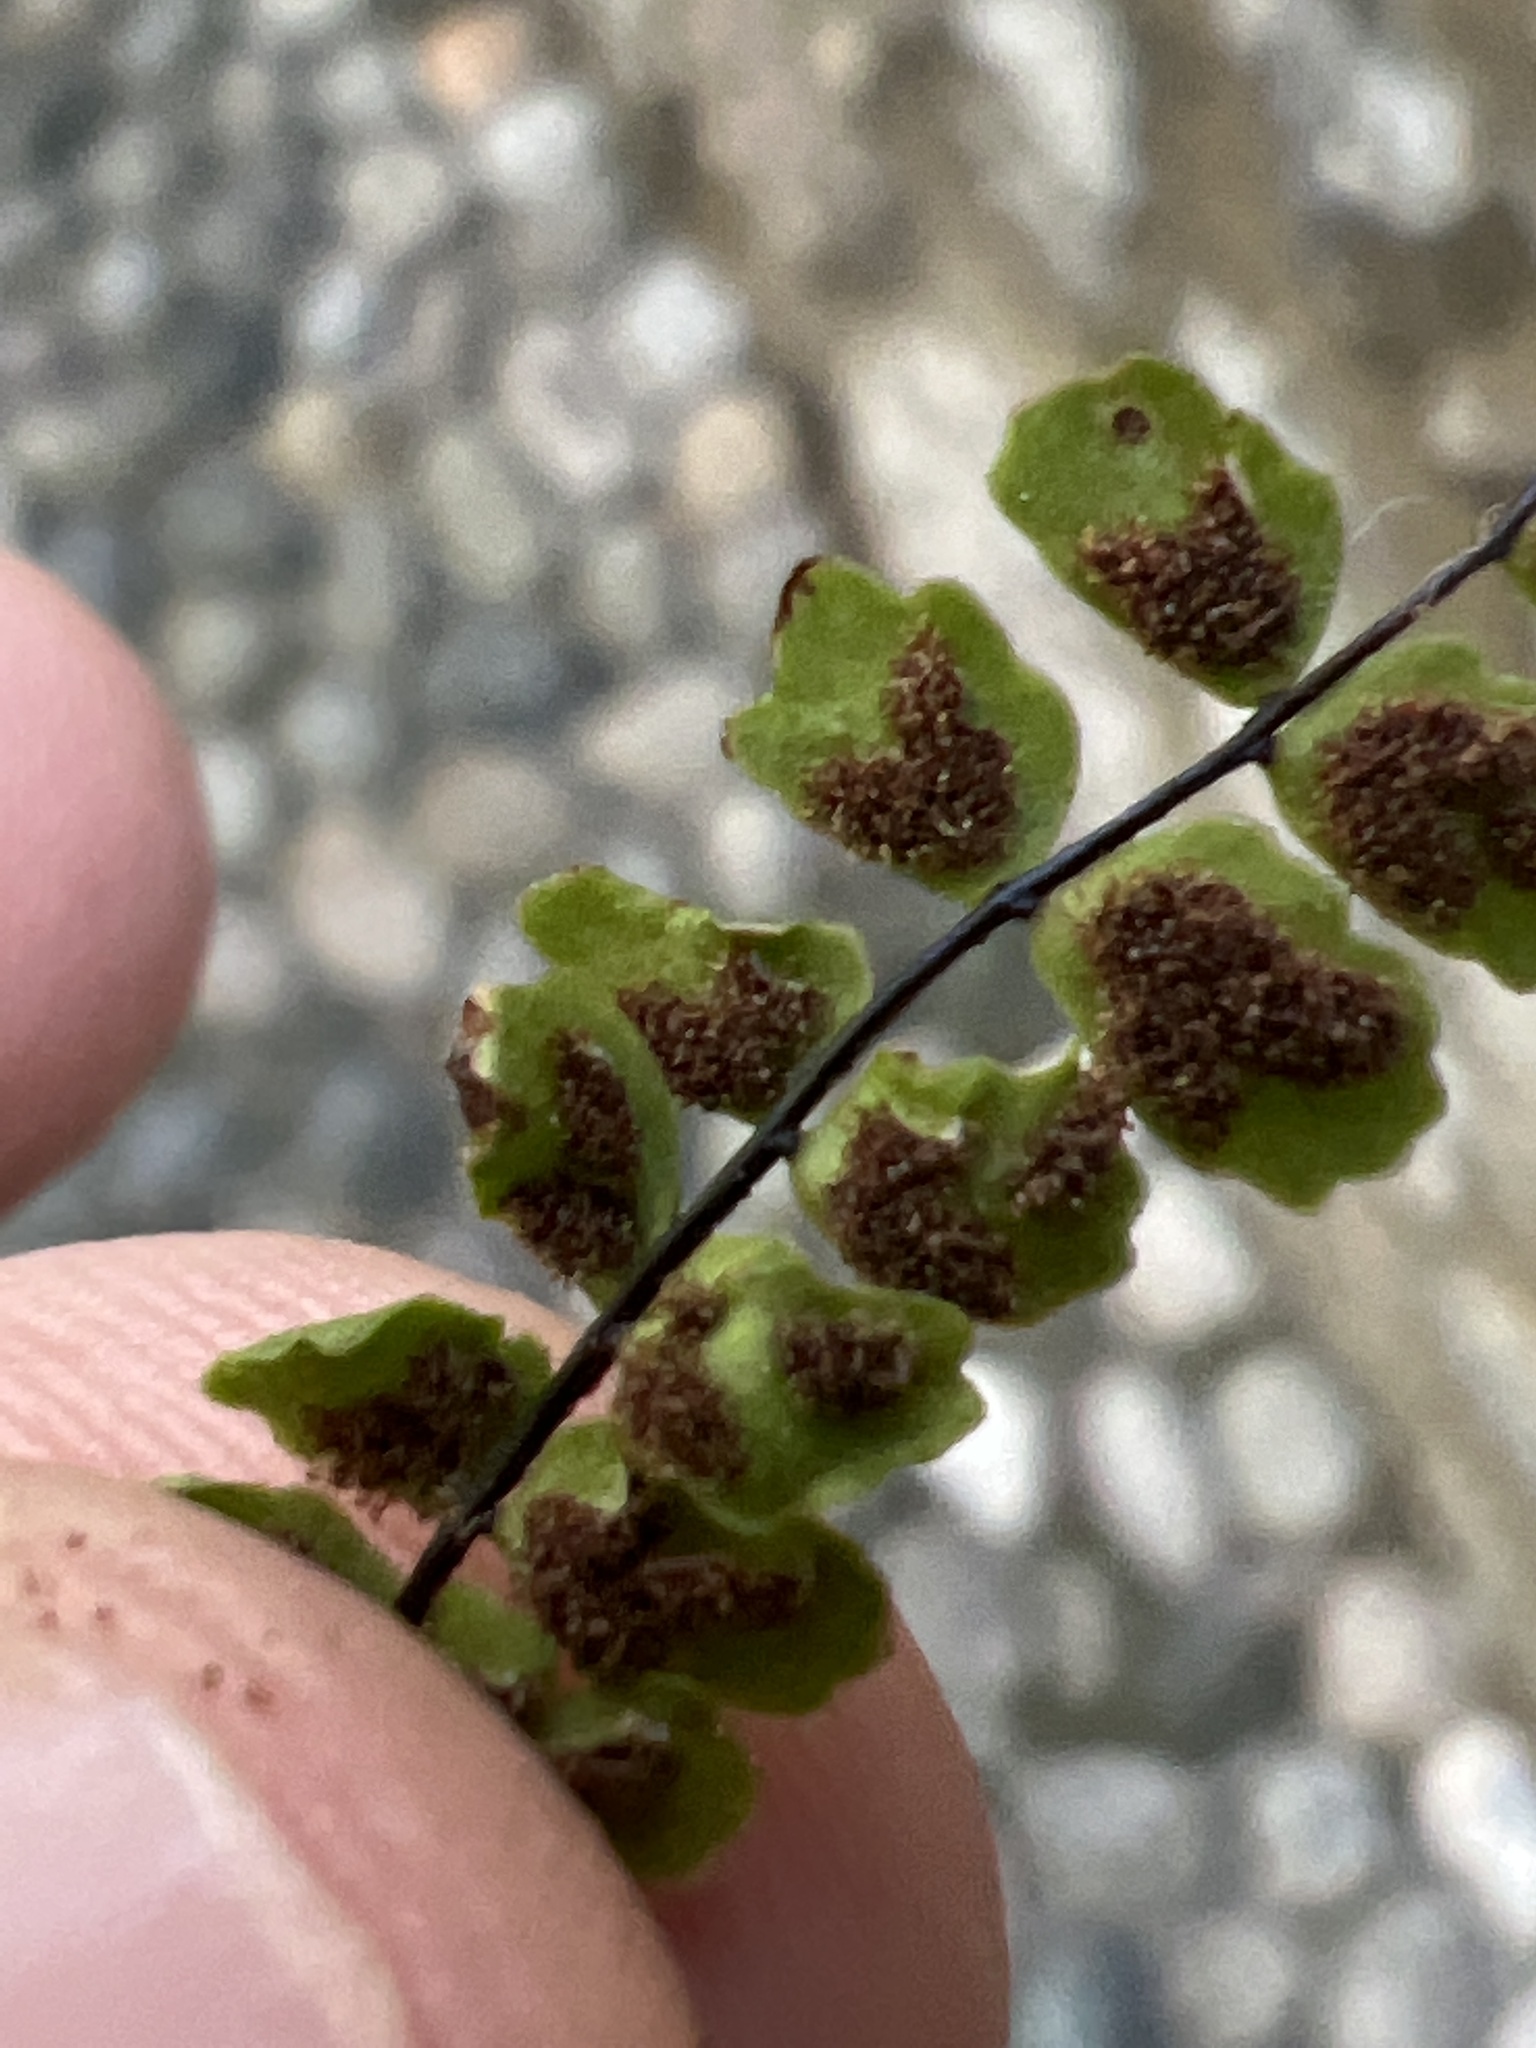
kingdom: Plantae
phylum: Tracheophyta
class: Polypodiopsida
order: Polypodiales
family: Aspleniaceae
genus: Asplenium
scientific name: Asplenium quadrivalens
